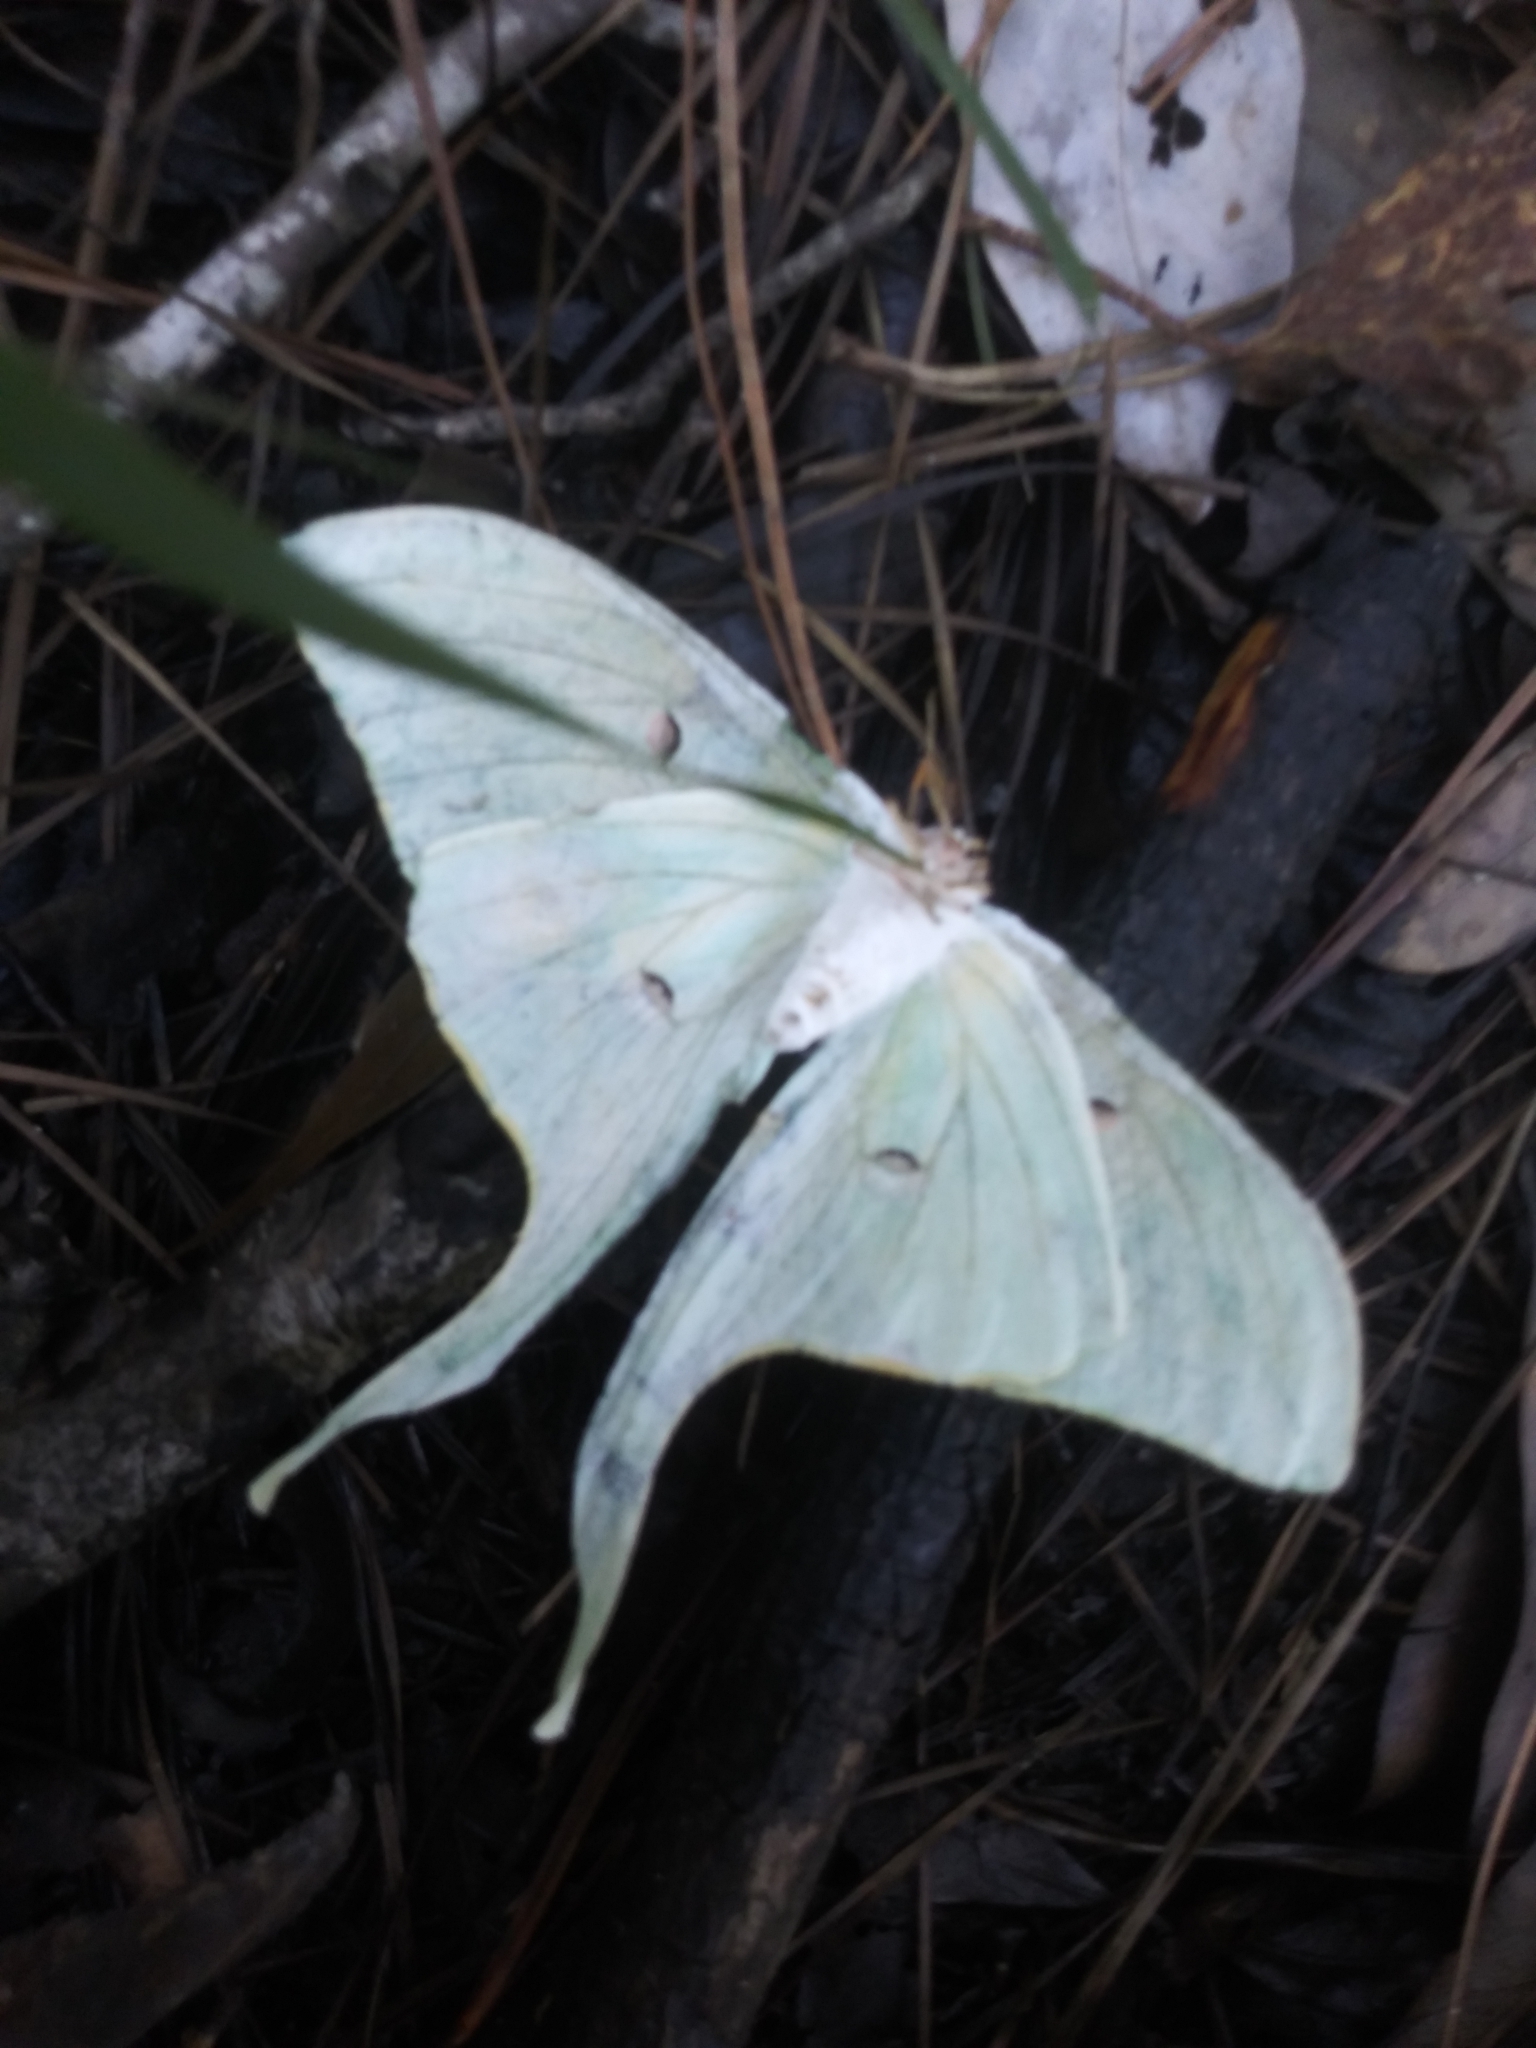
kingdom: Animalia
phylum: Arthropoda
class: Insecta
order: Lepidoptera
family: Saturniidae
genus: Actias
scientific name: Actias luna
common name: Luna moth
